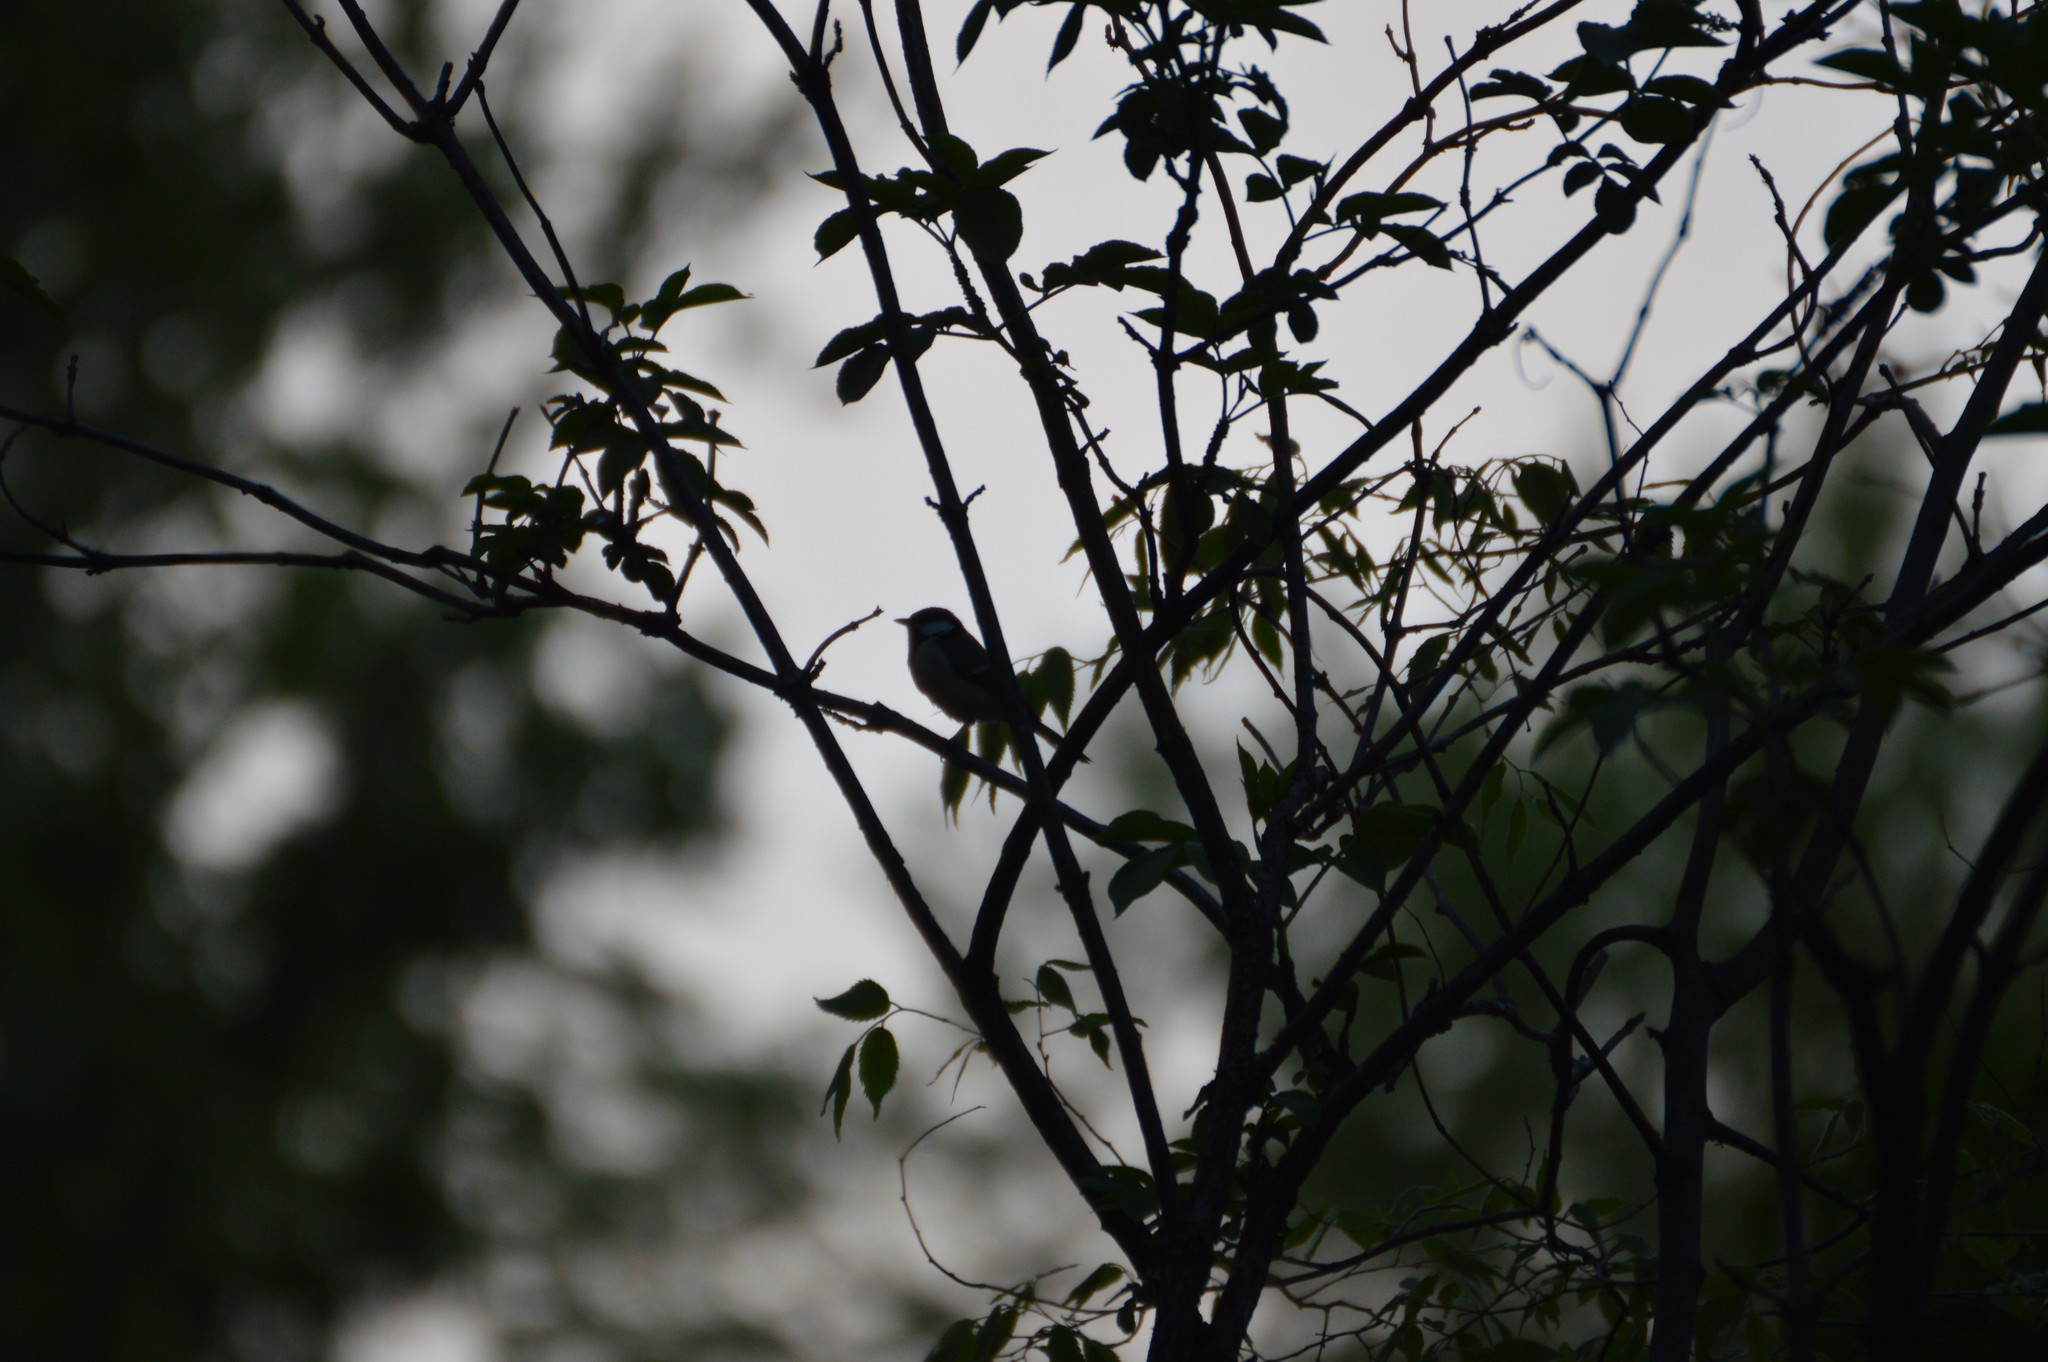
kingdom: Animalia
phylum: Chordata
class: Aves
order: Passeriformes
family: Paridae
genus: Parus
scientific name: Parus major
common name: Great tit
